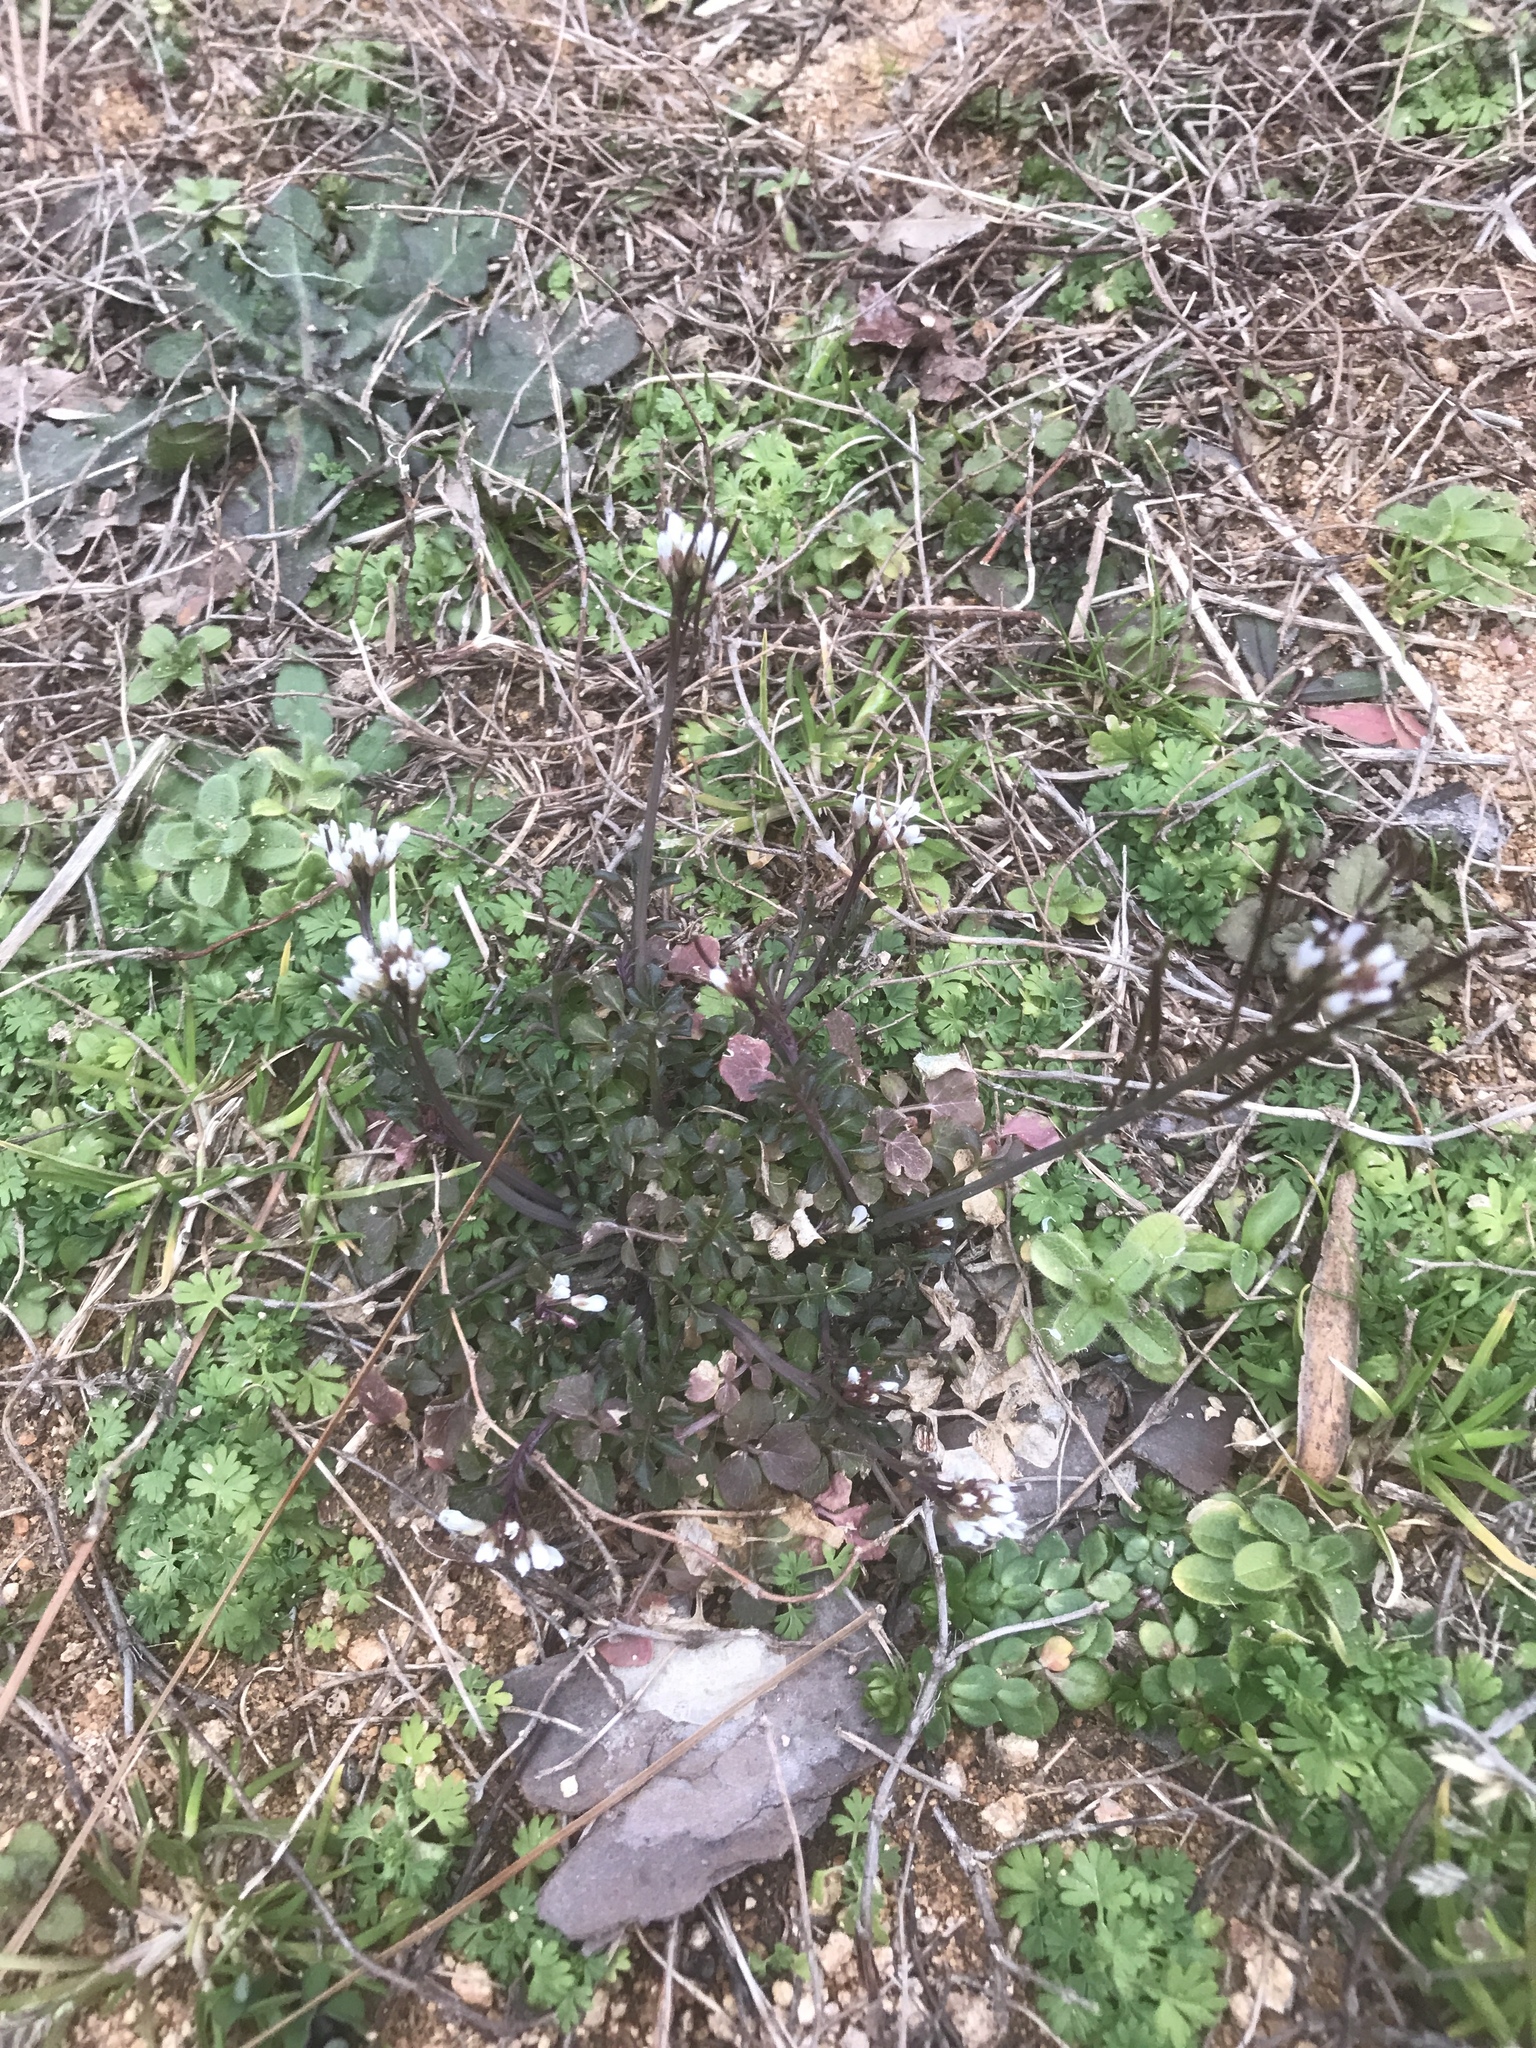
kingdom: Plantae
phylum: Tracheophyta
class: Magnoliopsida
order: Brassicales
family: Brassicaceae
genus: Cardamine
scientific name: Cardamine hirsuta
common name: Hairy bittercress
